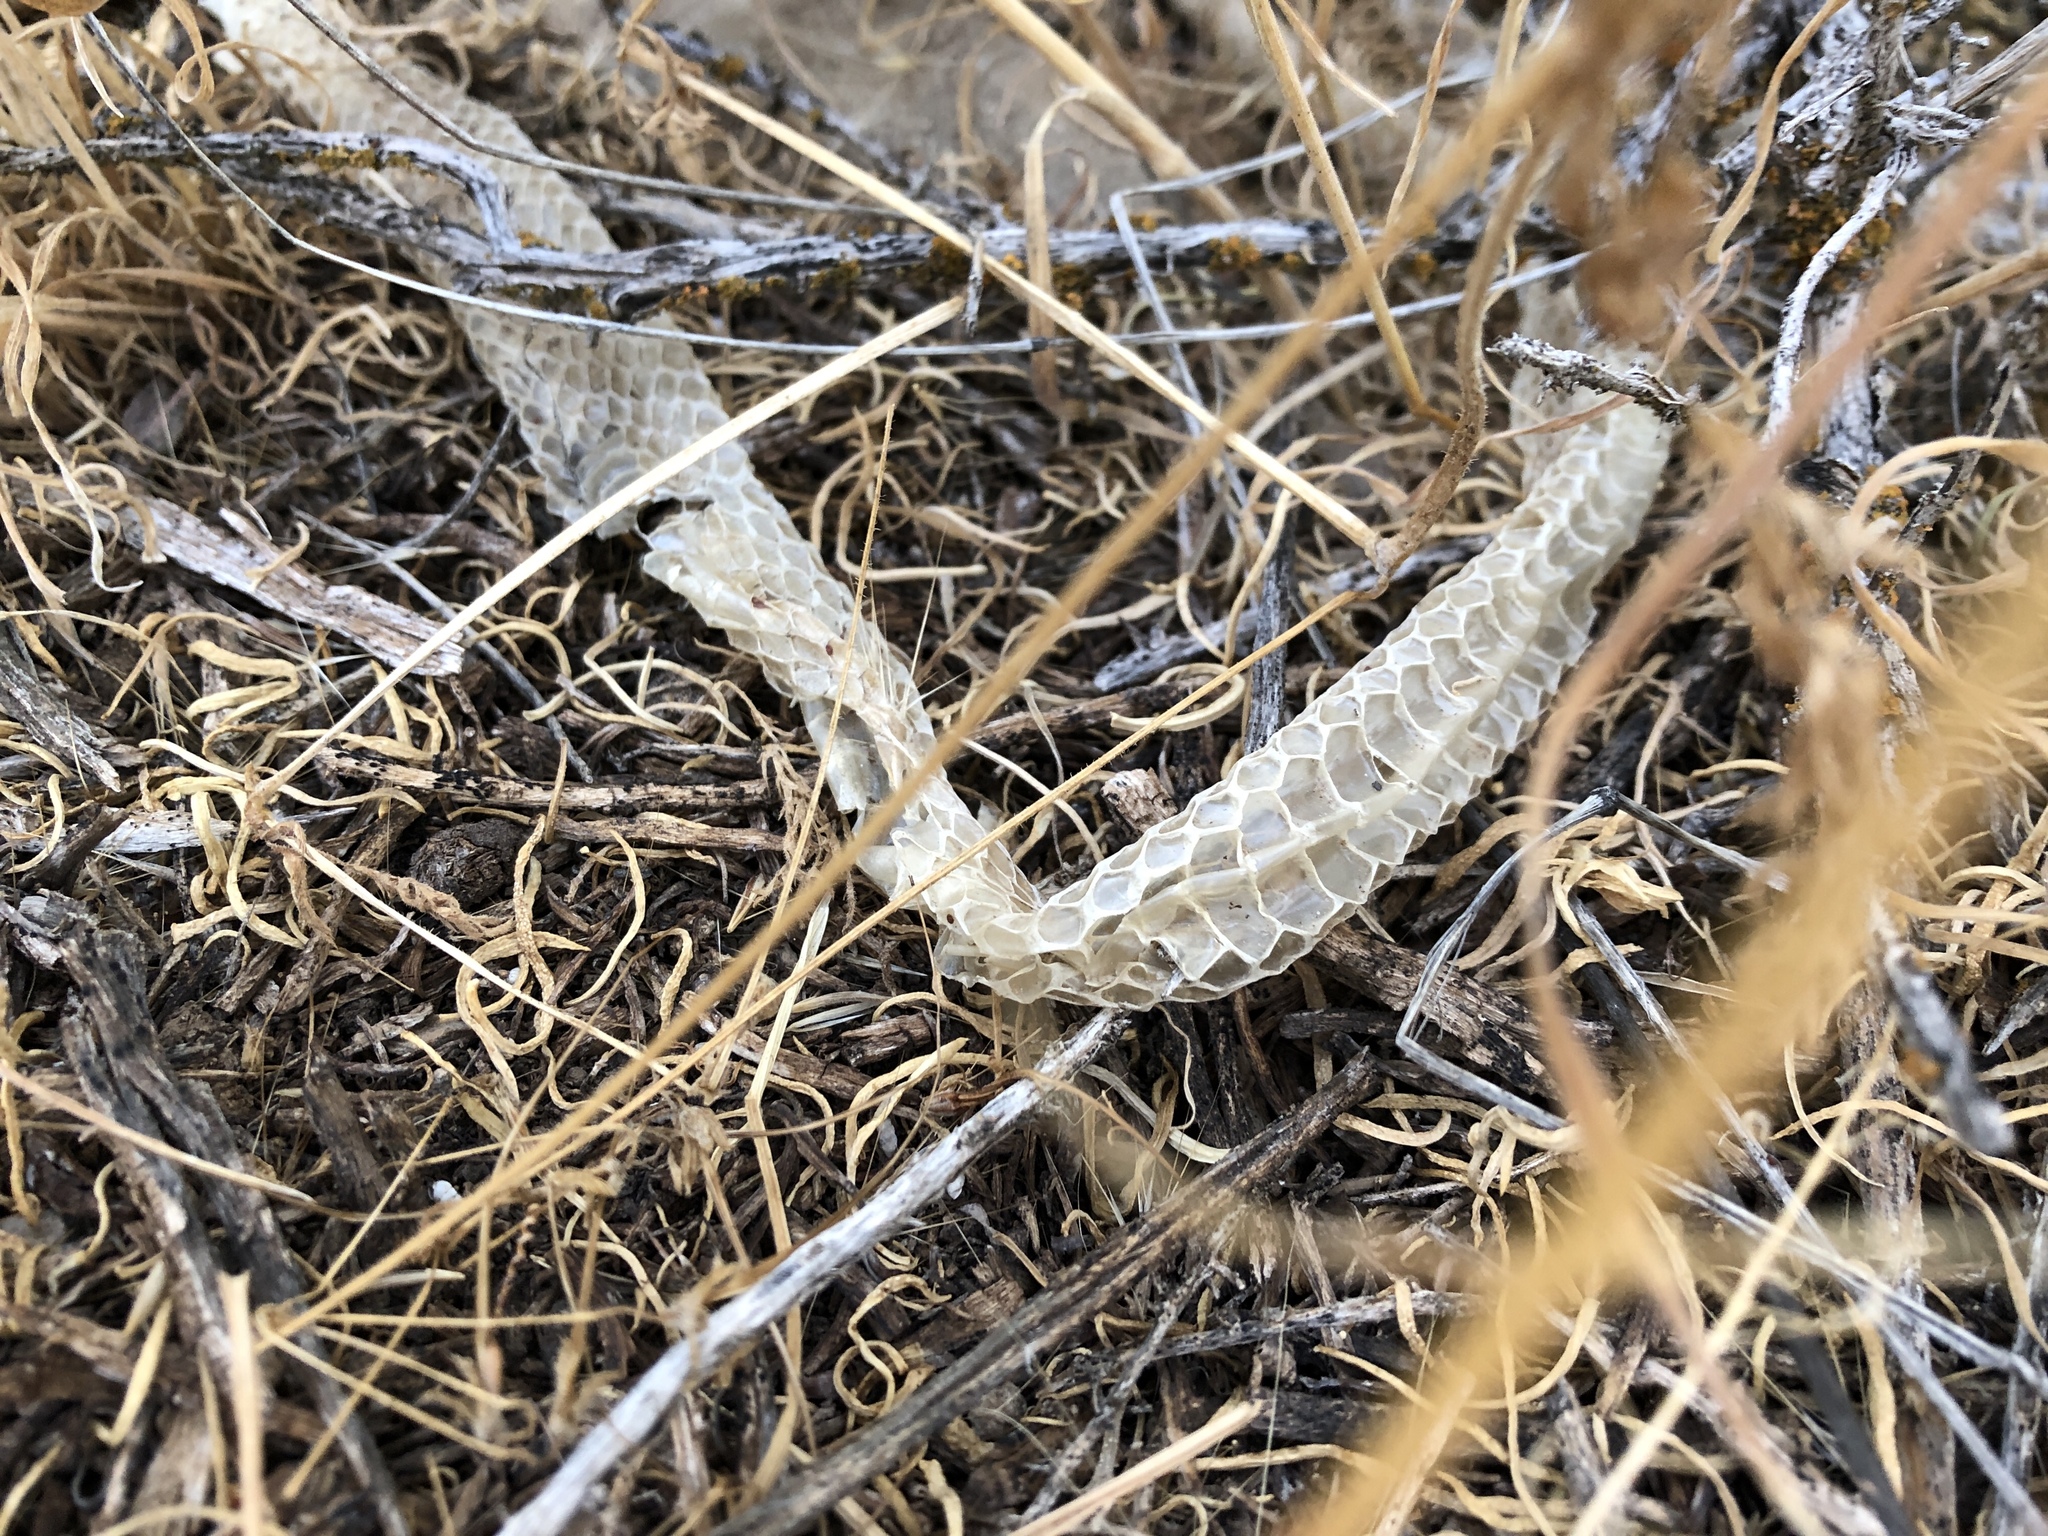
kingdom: Animalia
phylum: Chordata
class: Squamata
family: Colubridae
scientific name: Colubridae
